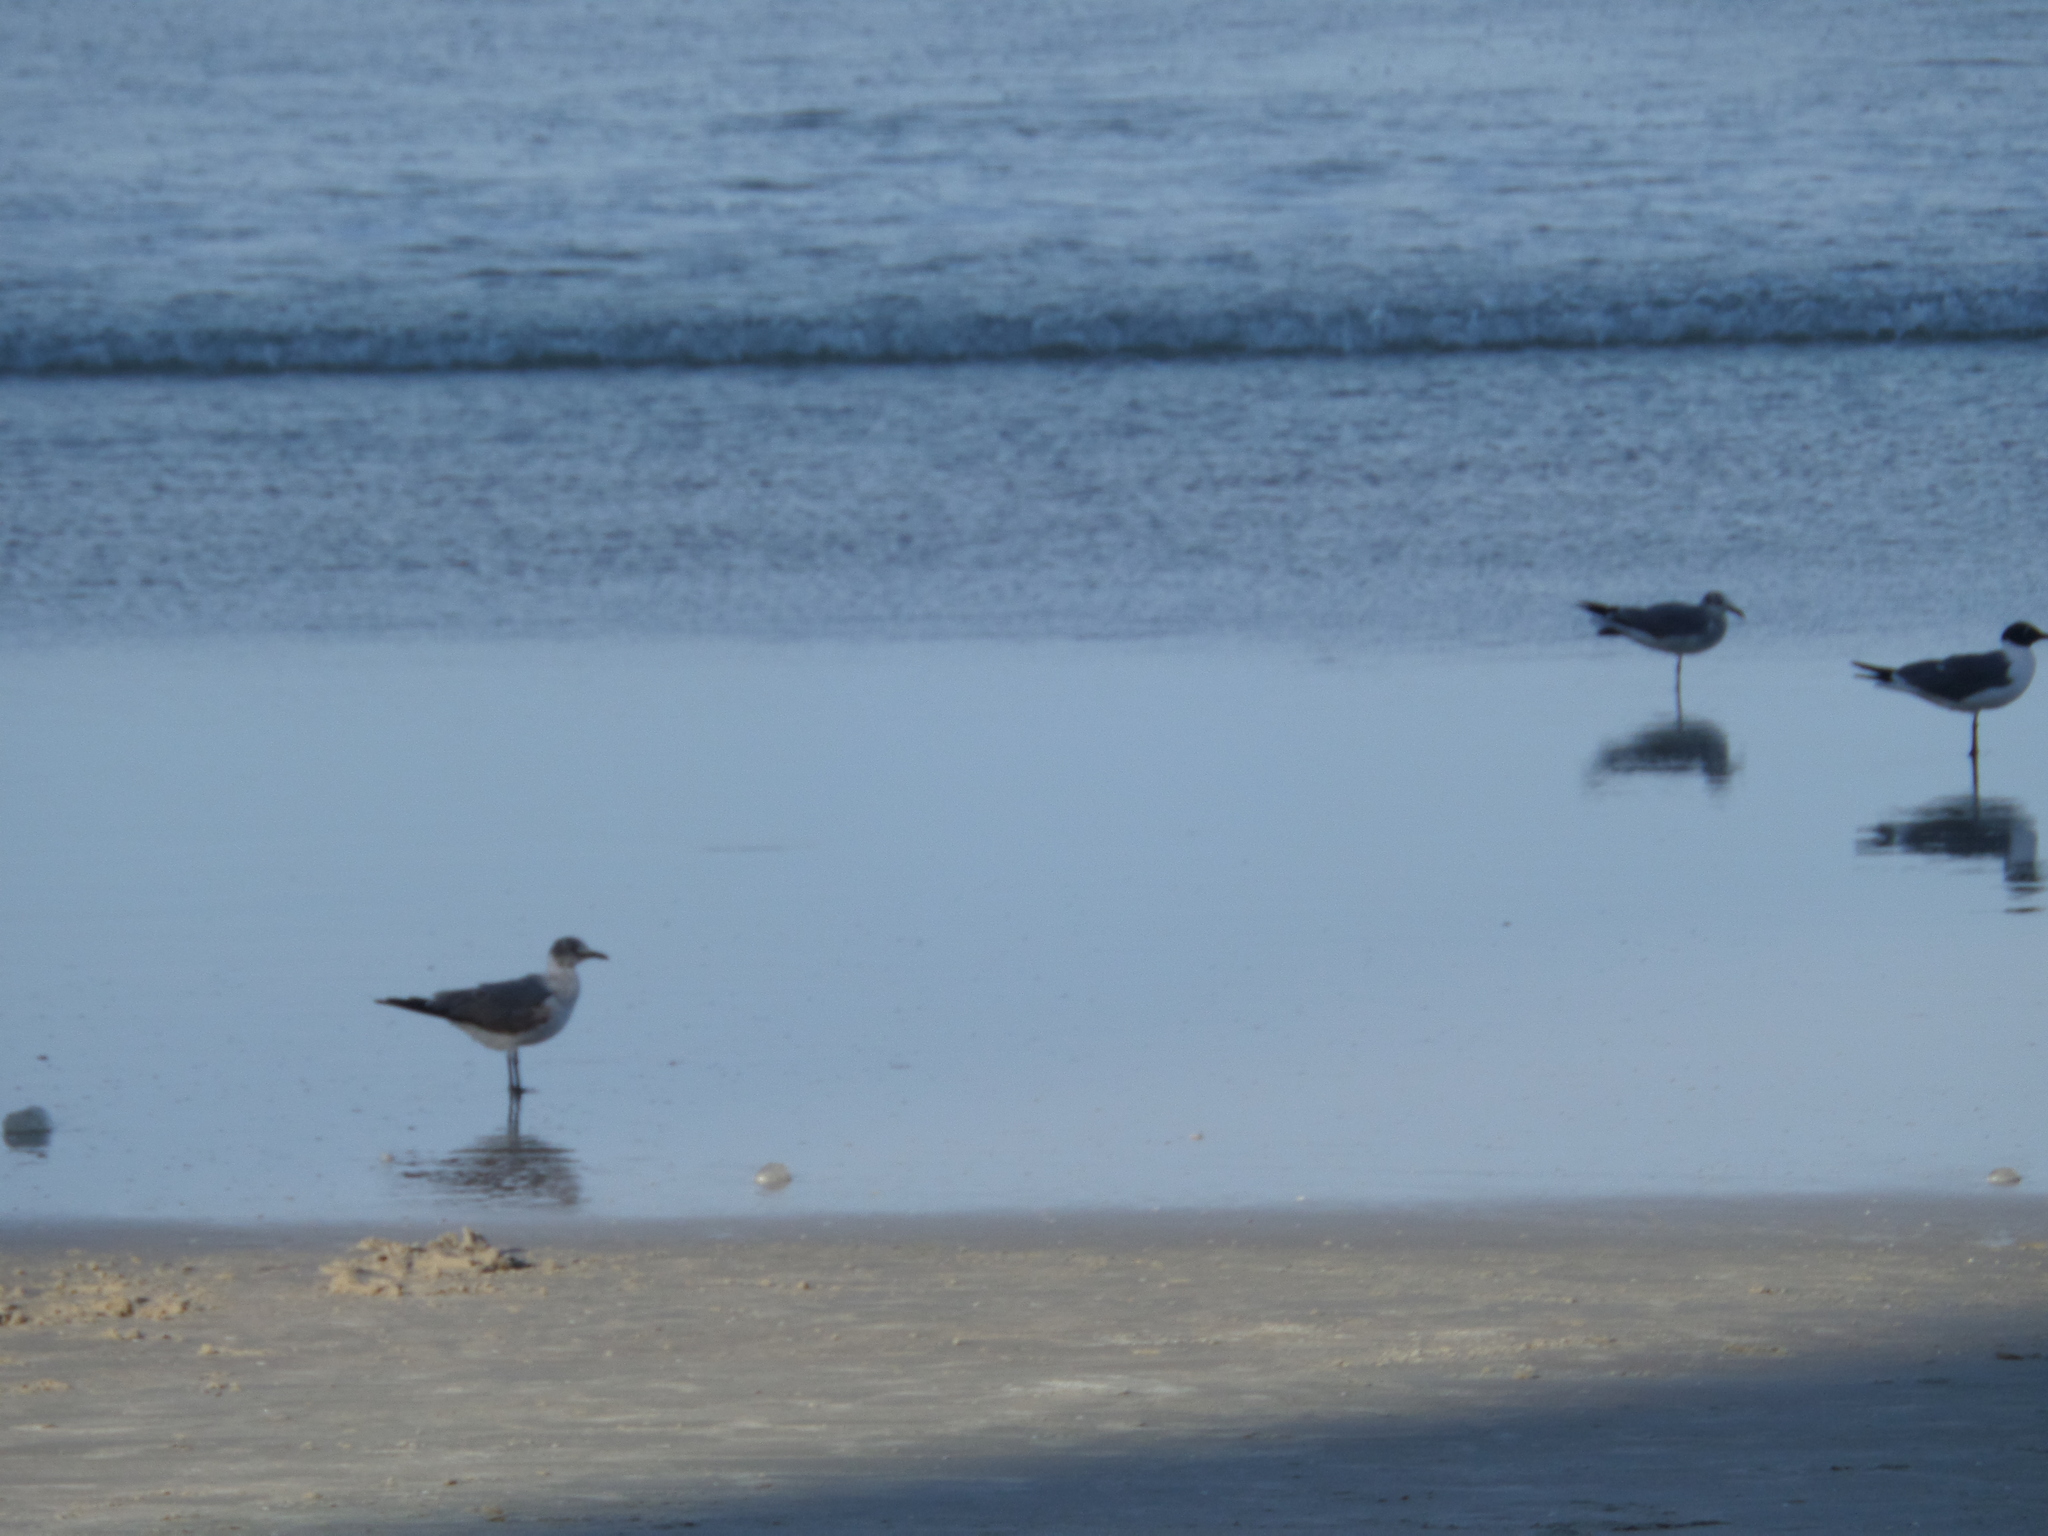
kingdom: Animalia
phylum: Chordata
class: Aves
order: Charadriiformes
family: Laridae
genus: Leucophaeus
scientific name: Leucophaeus atricilla
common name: Laughing gull
